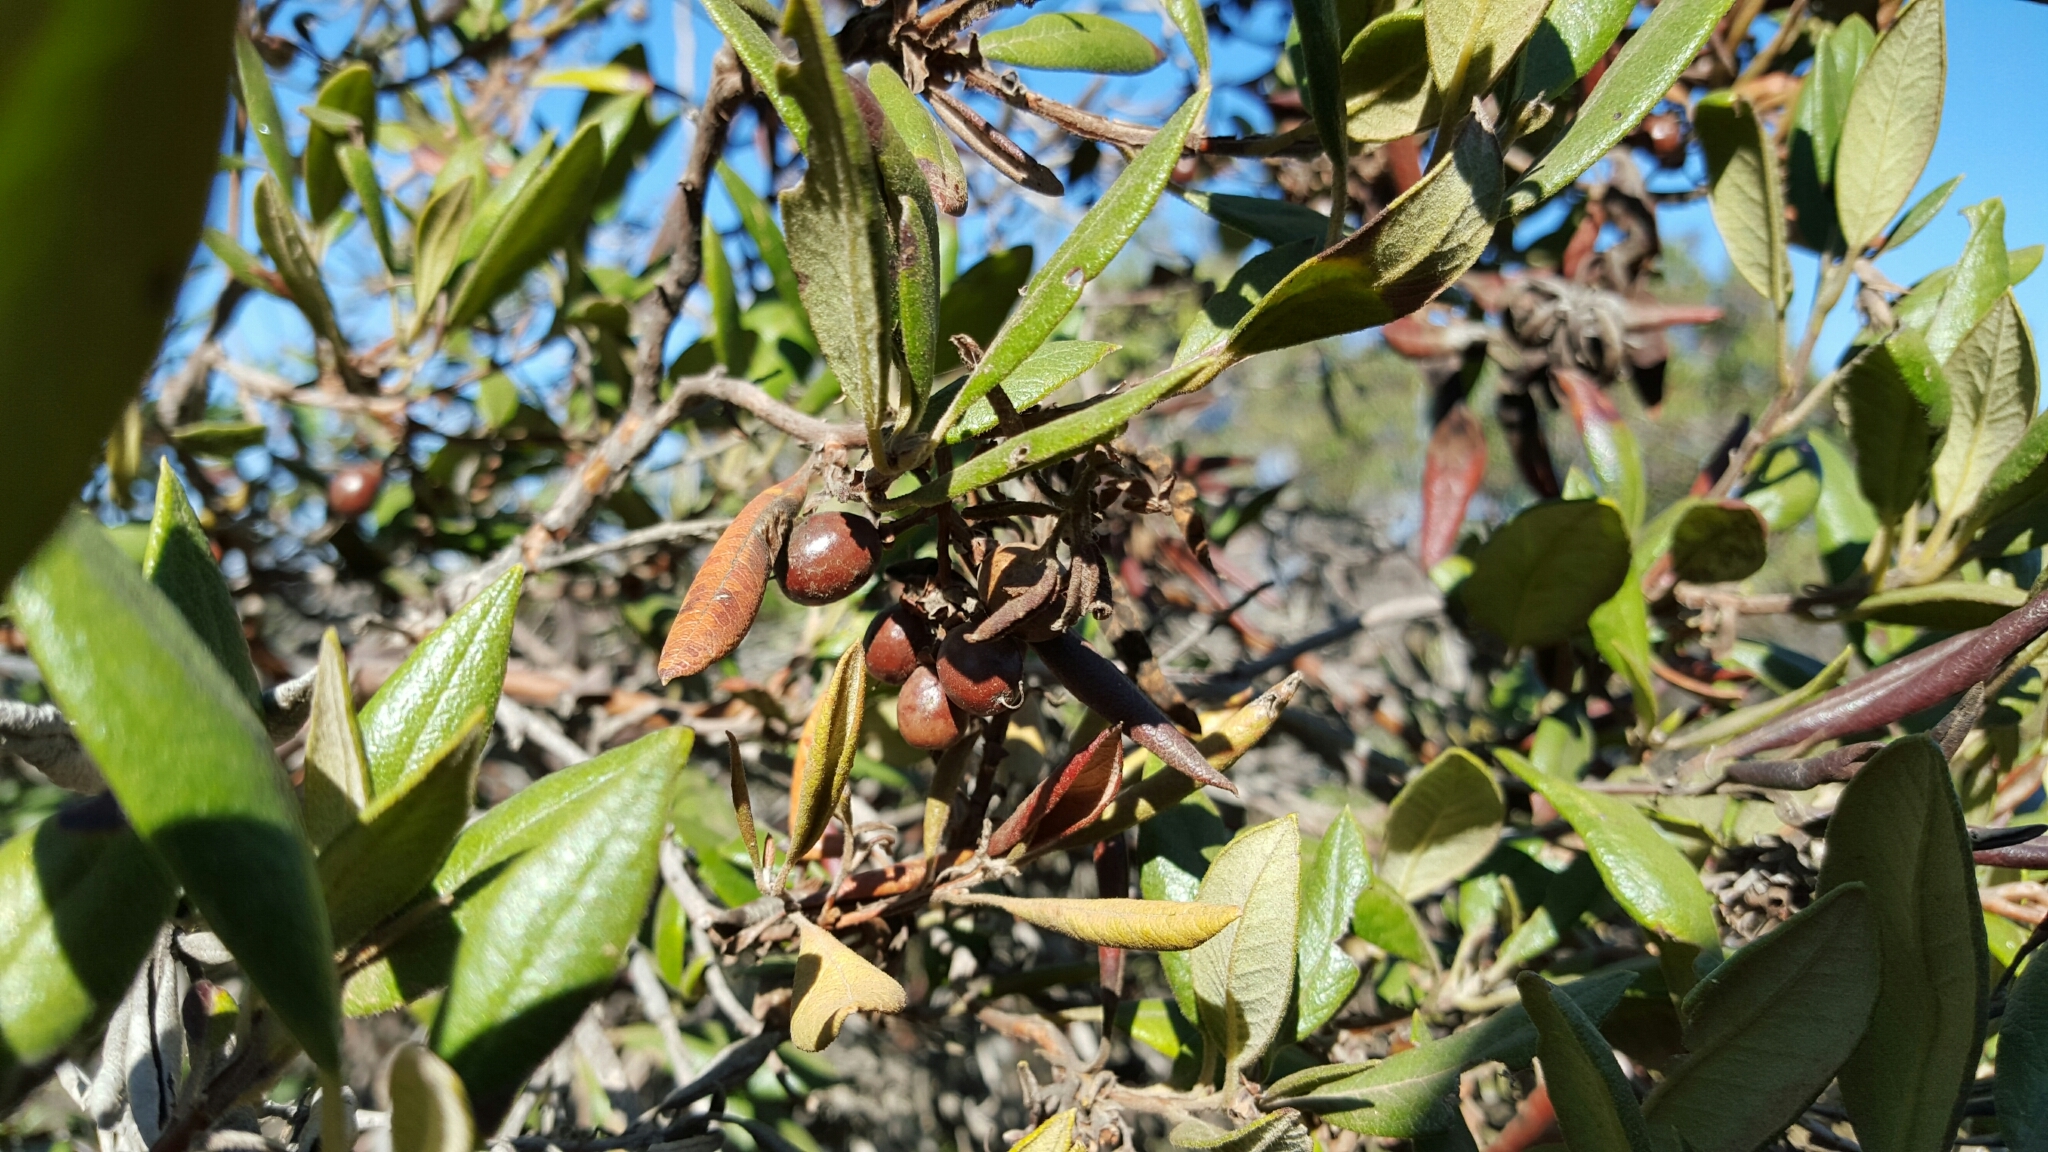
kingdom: Plantae
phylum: Tracheophyta
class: Magnoliopsida
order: Ericales
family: Ericaceae
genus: Arctostaphylos
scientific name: Arctostaphylos bicolor
